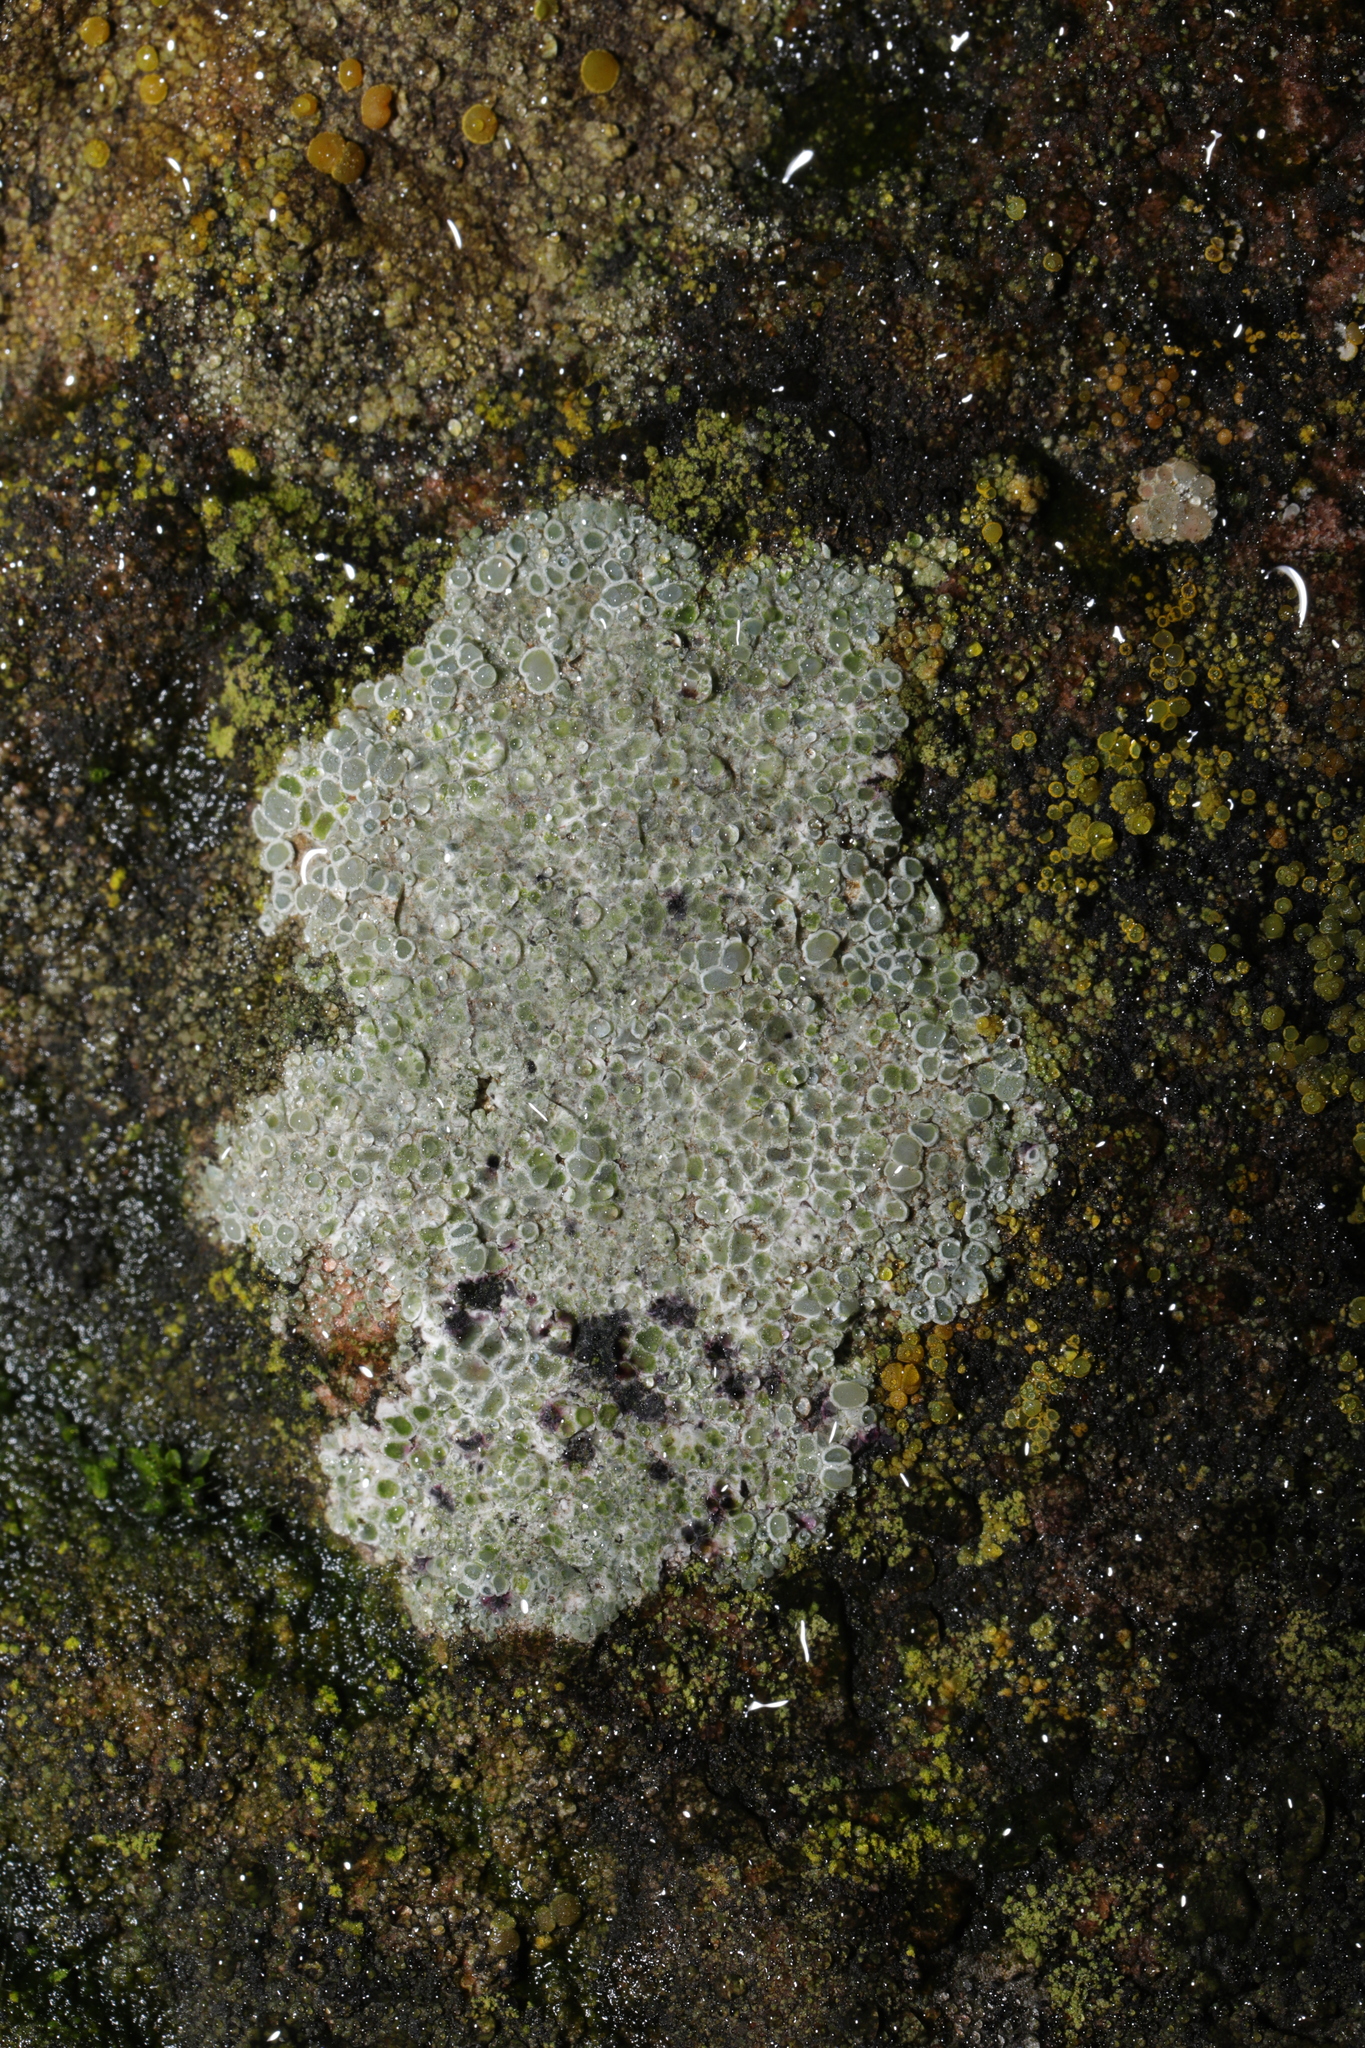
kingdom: Fungi
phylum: Ascomycota
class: Lecanoromycetes
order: Lecanorales
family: Lecanoraceae
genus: Polyozosia
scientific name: Polyozosia albescens
